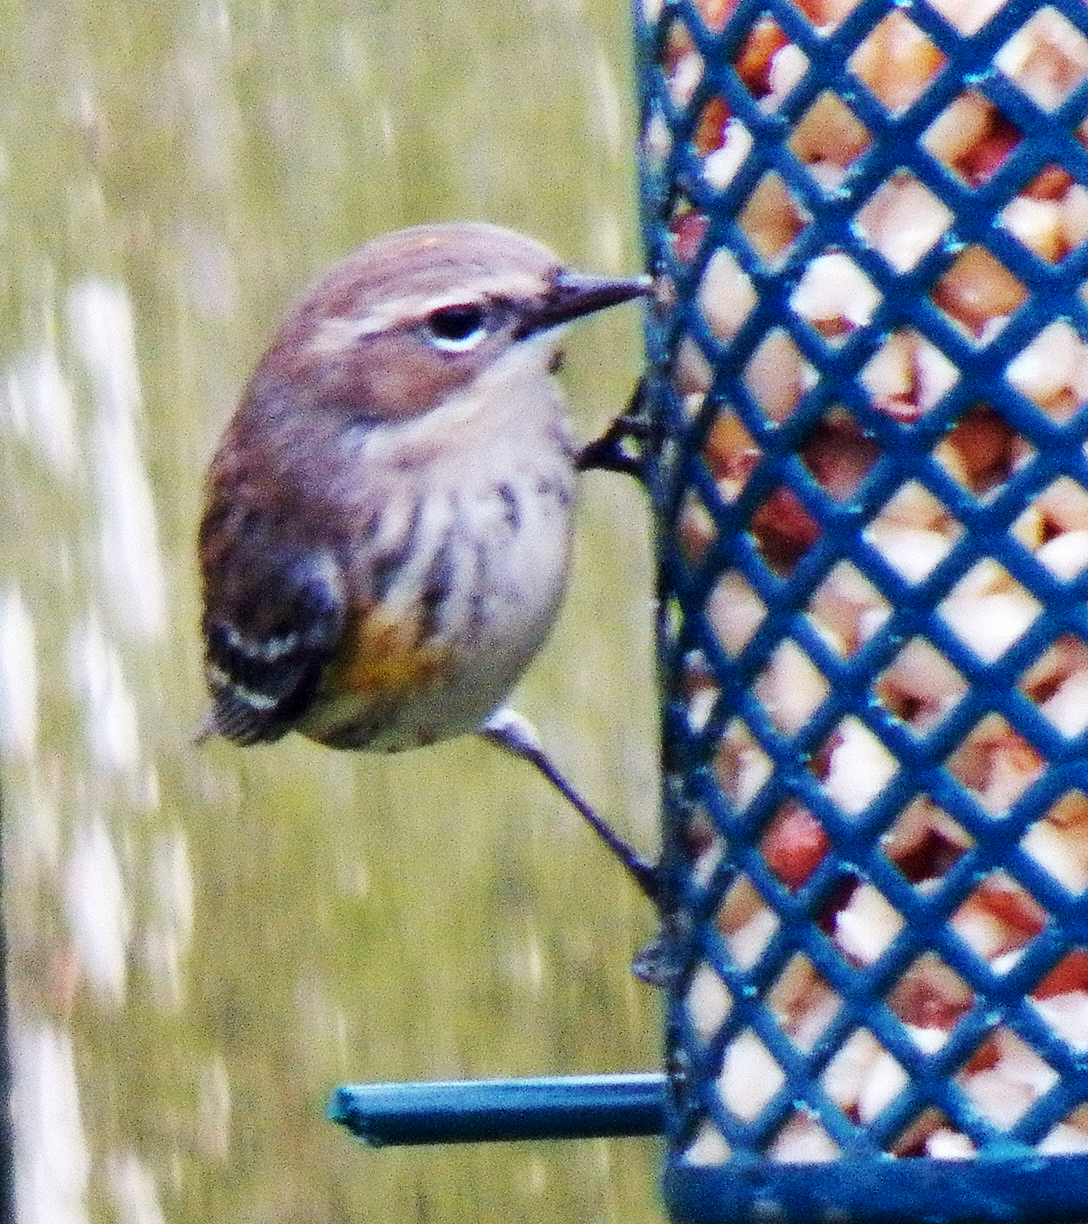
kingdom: Animalia
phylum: Chordata
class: Aves
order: Passeriformes
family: Parulidae
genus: Setophaga
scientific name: Setophaga coronata
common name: Myrtle warbler
